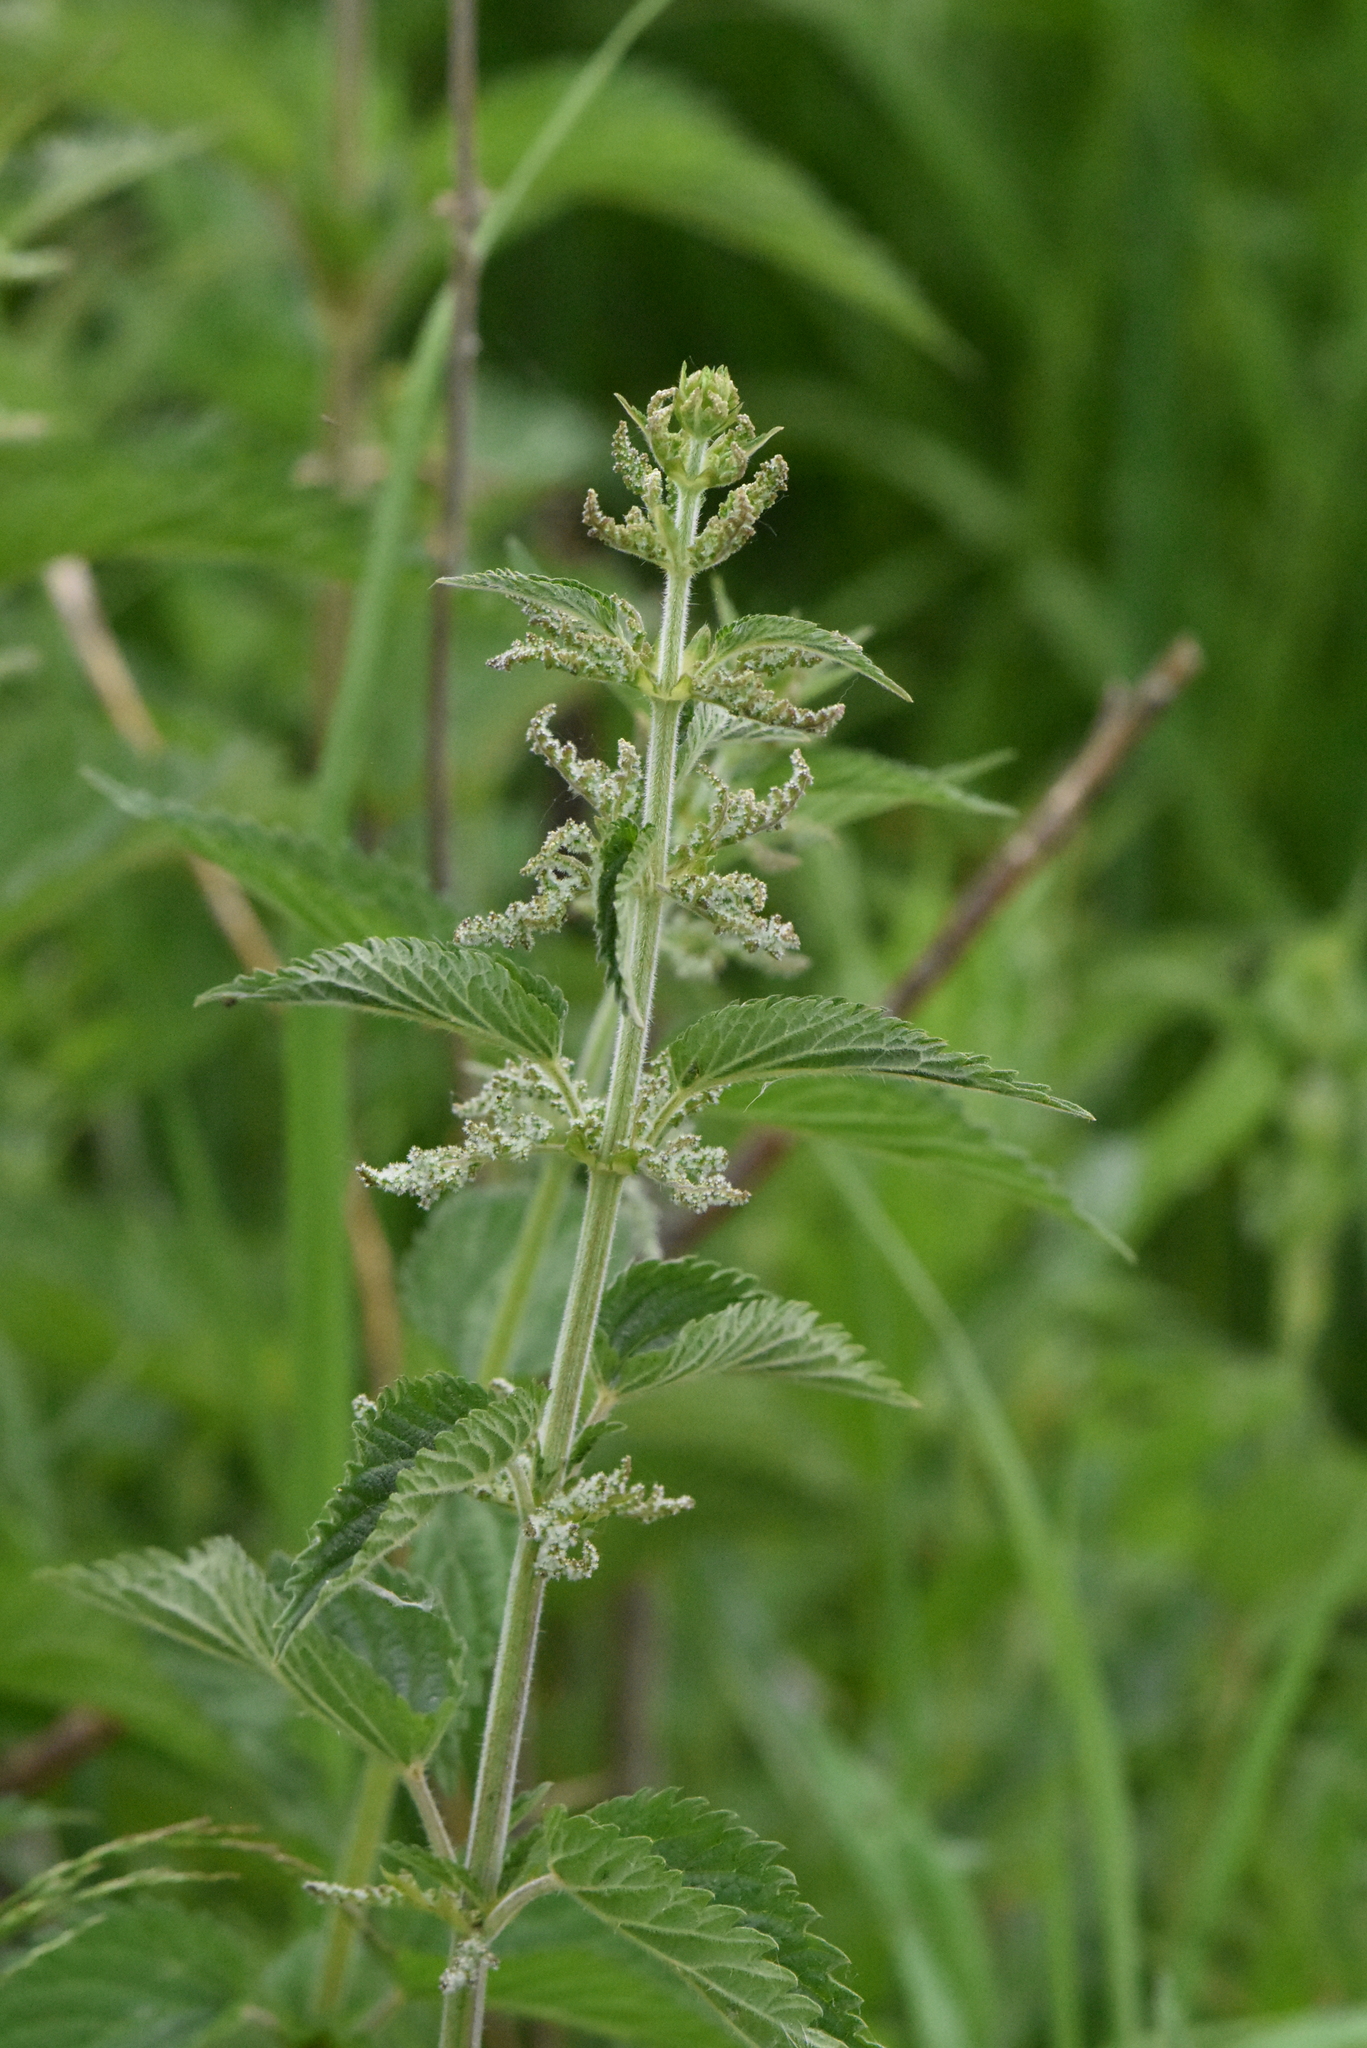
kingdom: Plantae
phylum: Tracheophyta
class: Magnoliopsida
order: Rosales
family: Urticaceae
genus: Urtica
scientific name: Urtica dioica
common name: Common nettle
